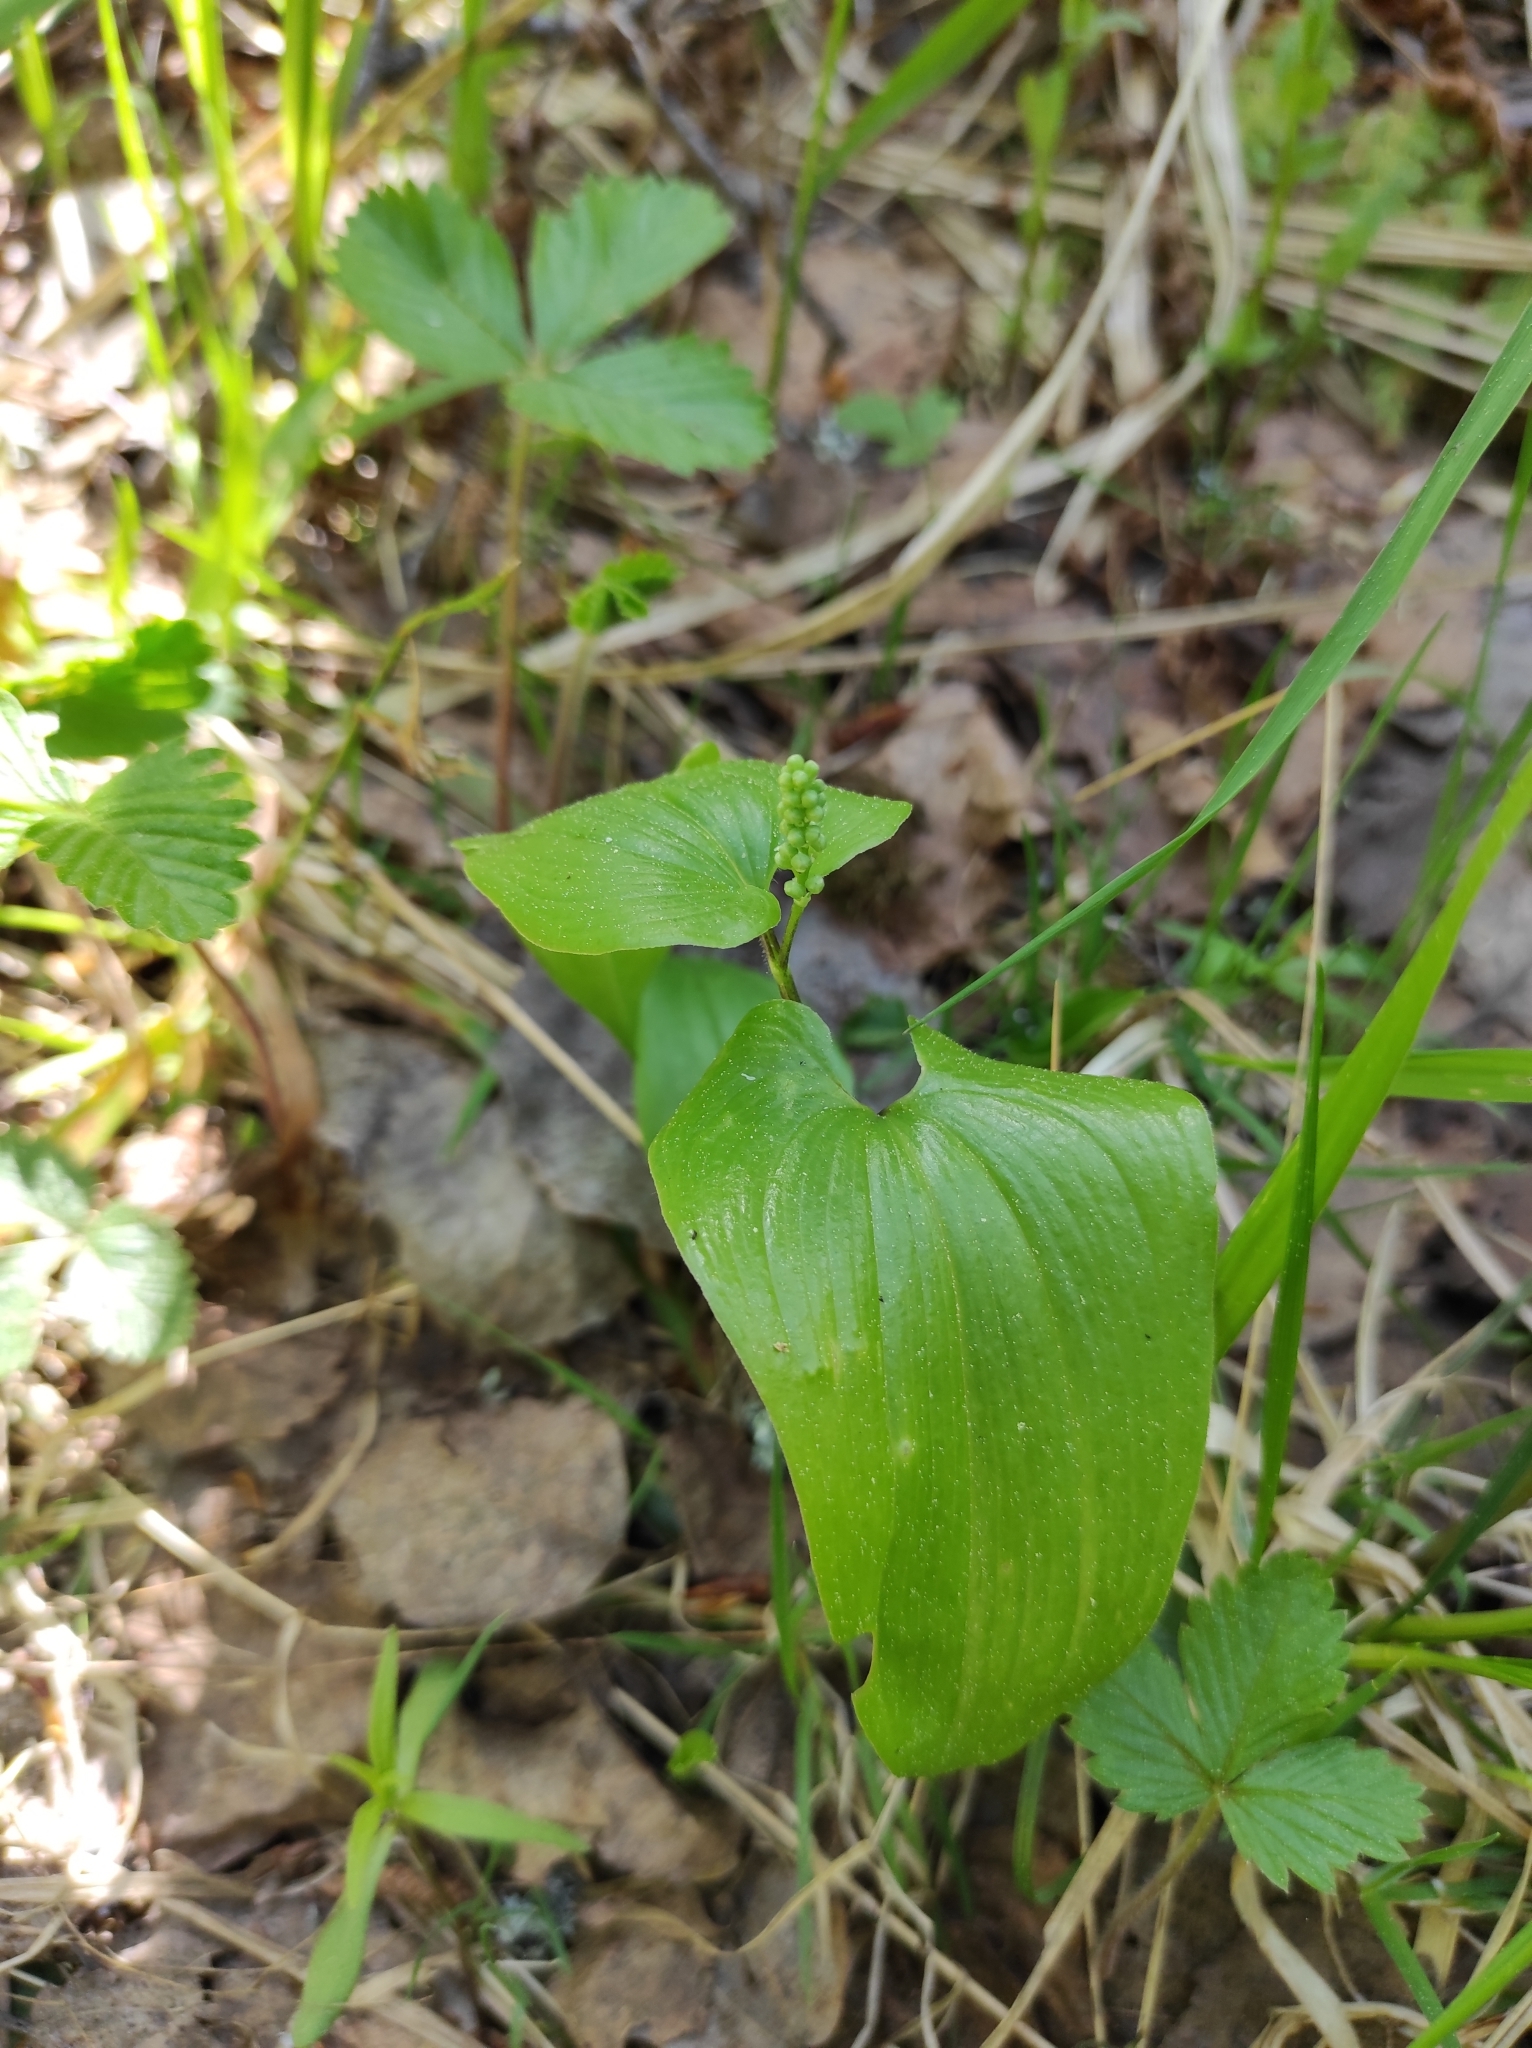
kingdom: Plantae
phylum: Tracheophyta
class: Liliopsida
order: Asparagales
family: Asparagaceae
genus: Maianthemum
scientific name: Maianthemum bifolium
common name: May lily
